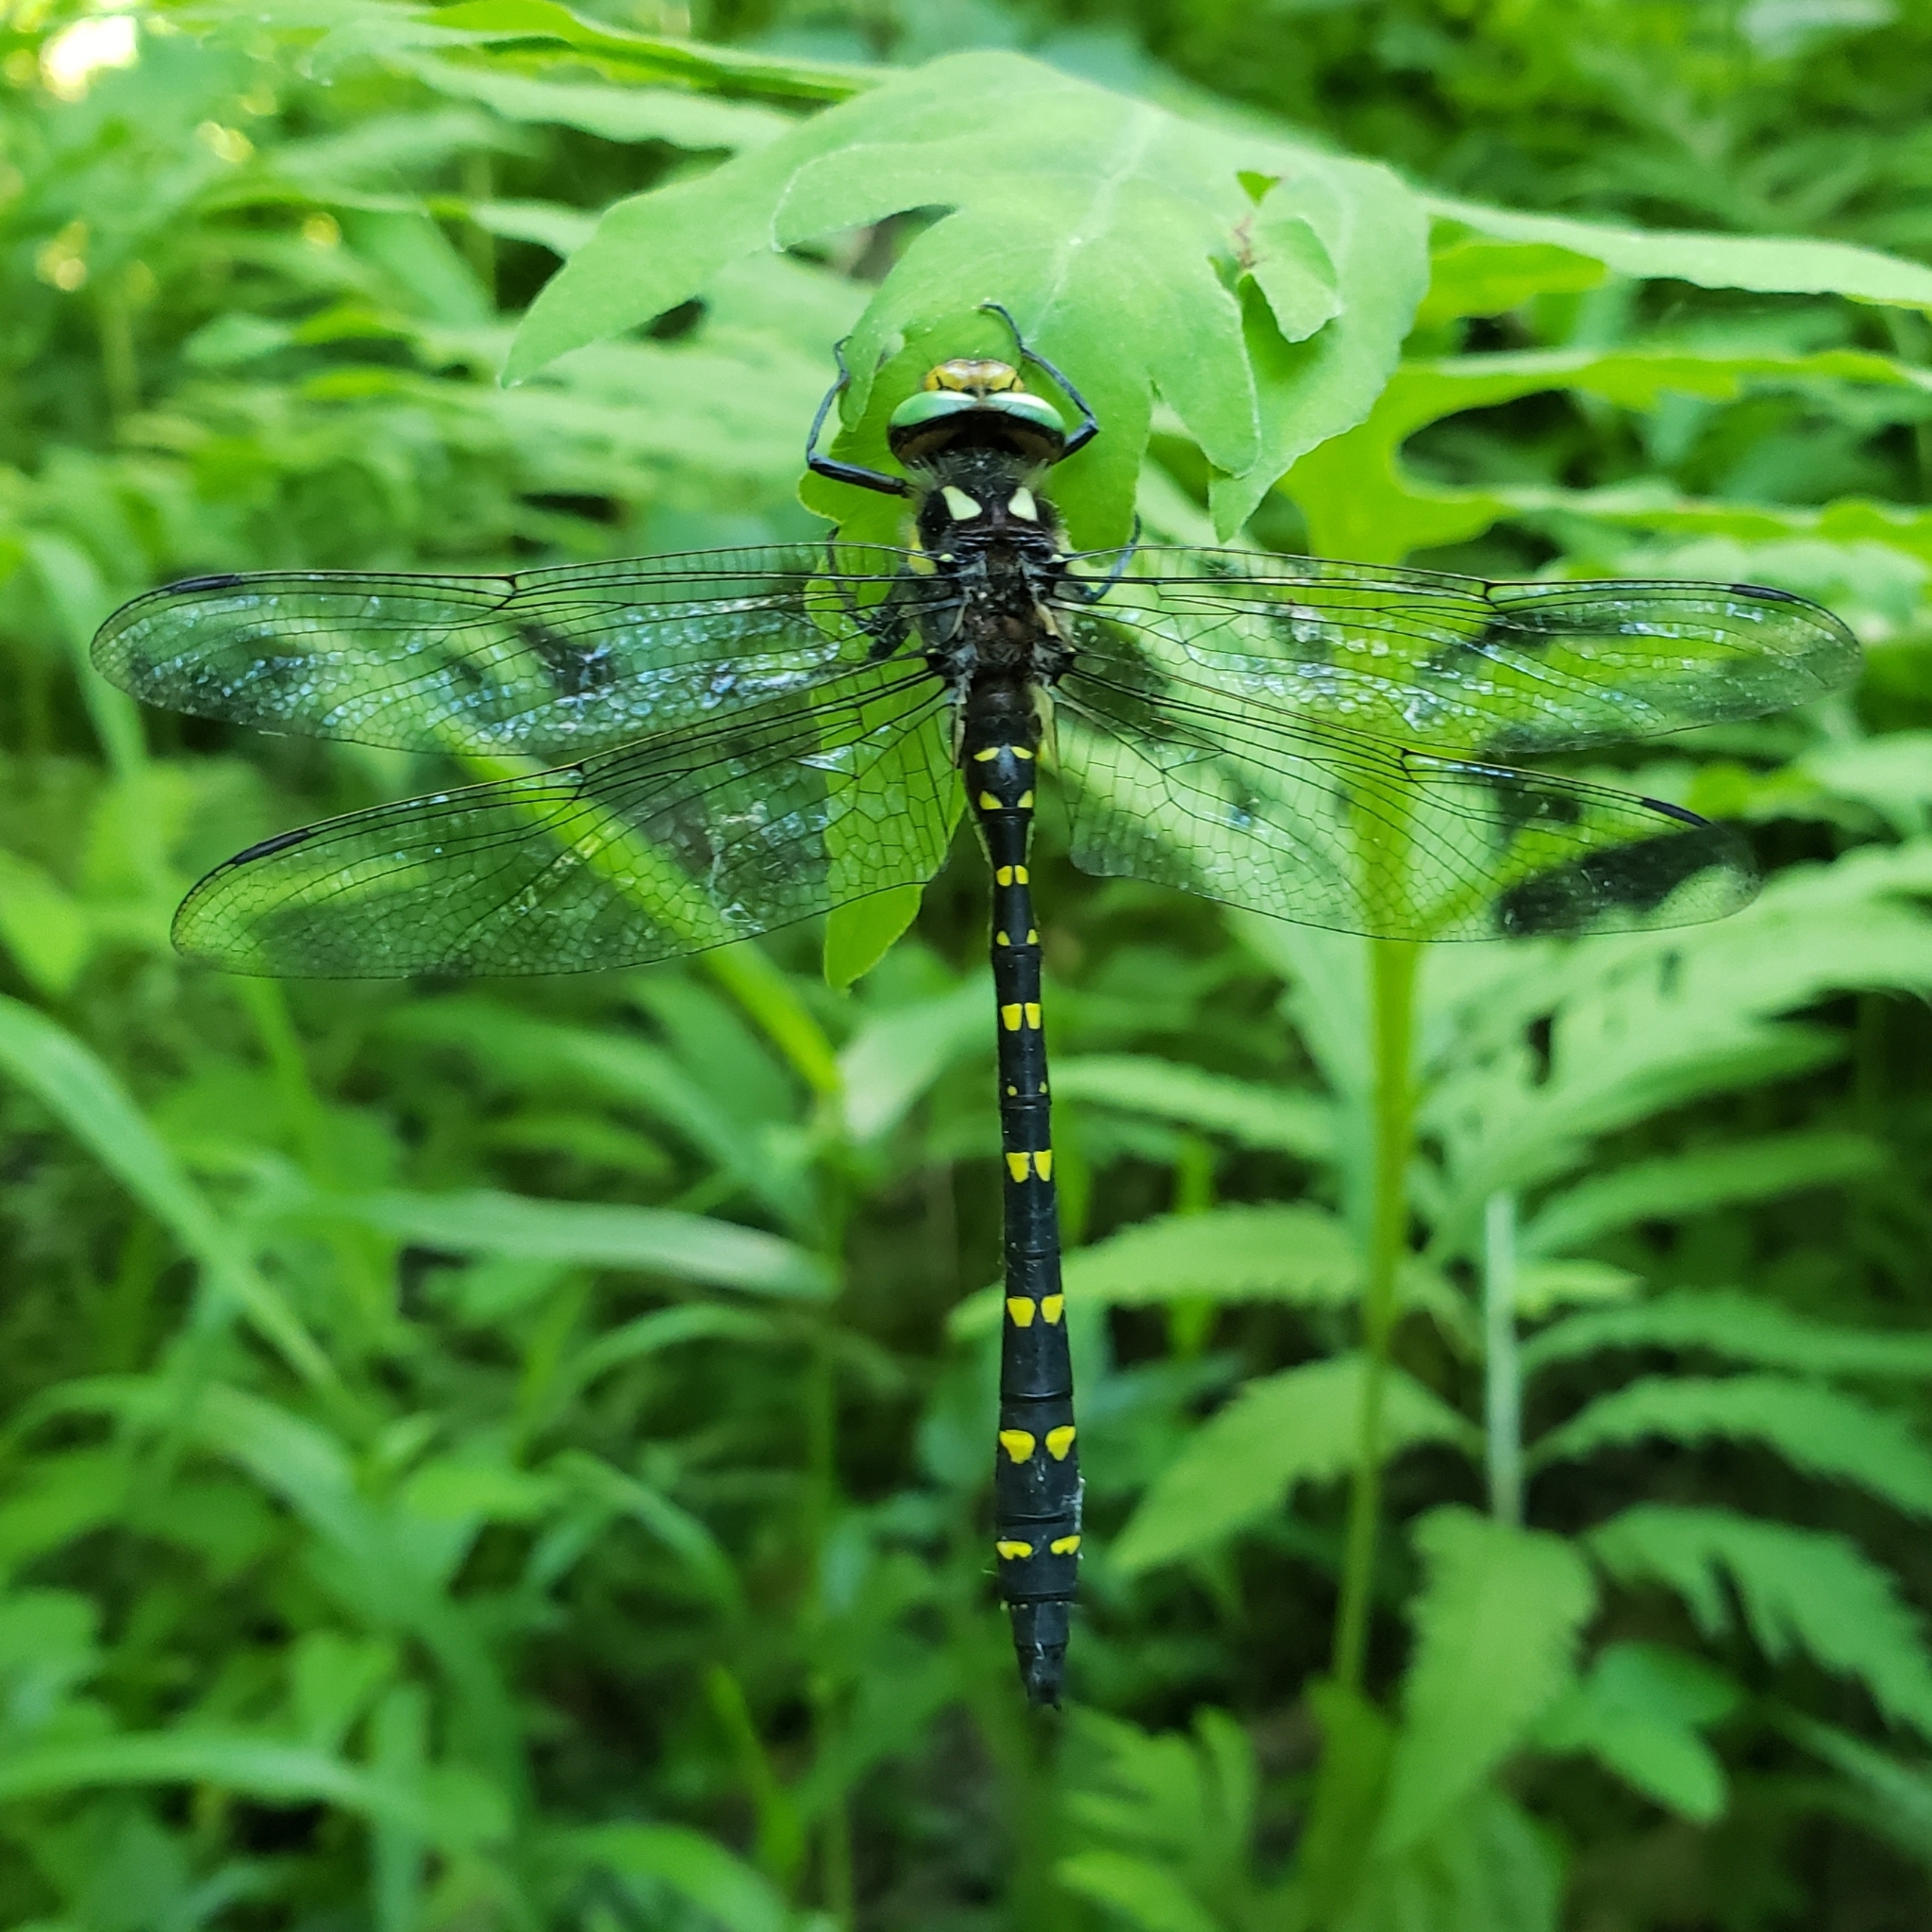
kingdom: Animalia
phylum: Arthropoda
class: Insecta
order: Odonata
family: Cordulegastridae
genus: Cordulegaster
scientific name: Cordulegaster maculata
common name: Twin-spotted spiketail
